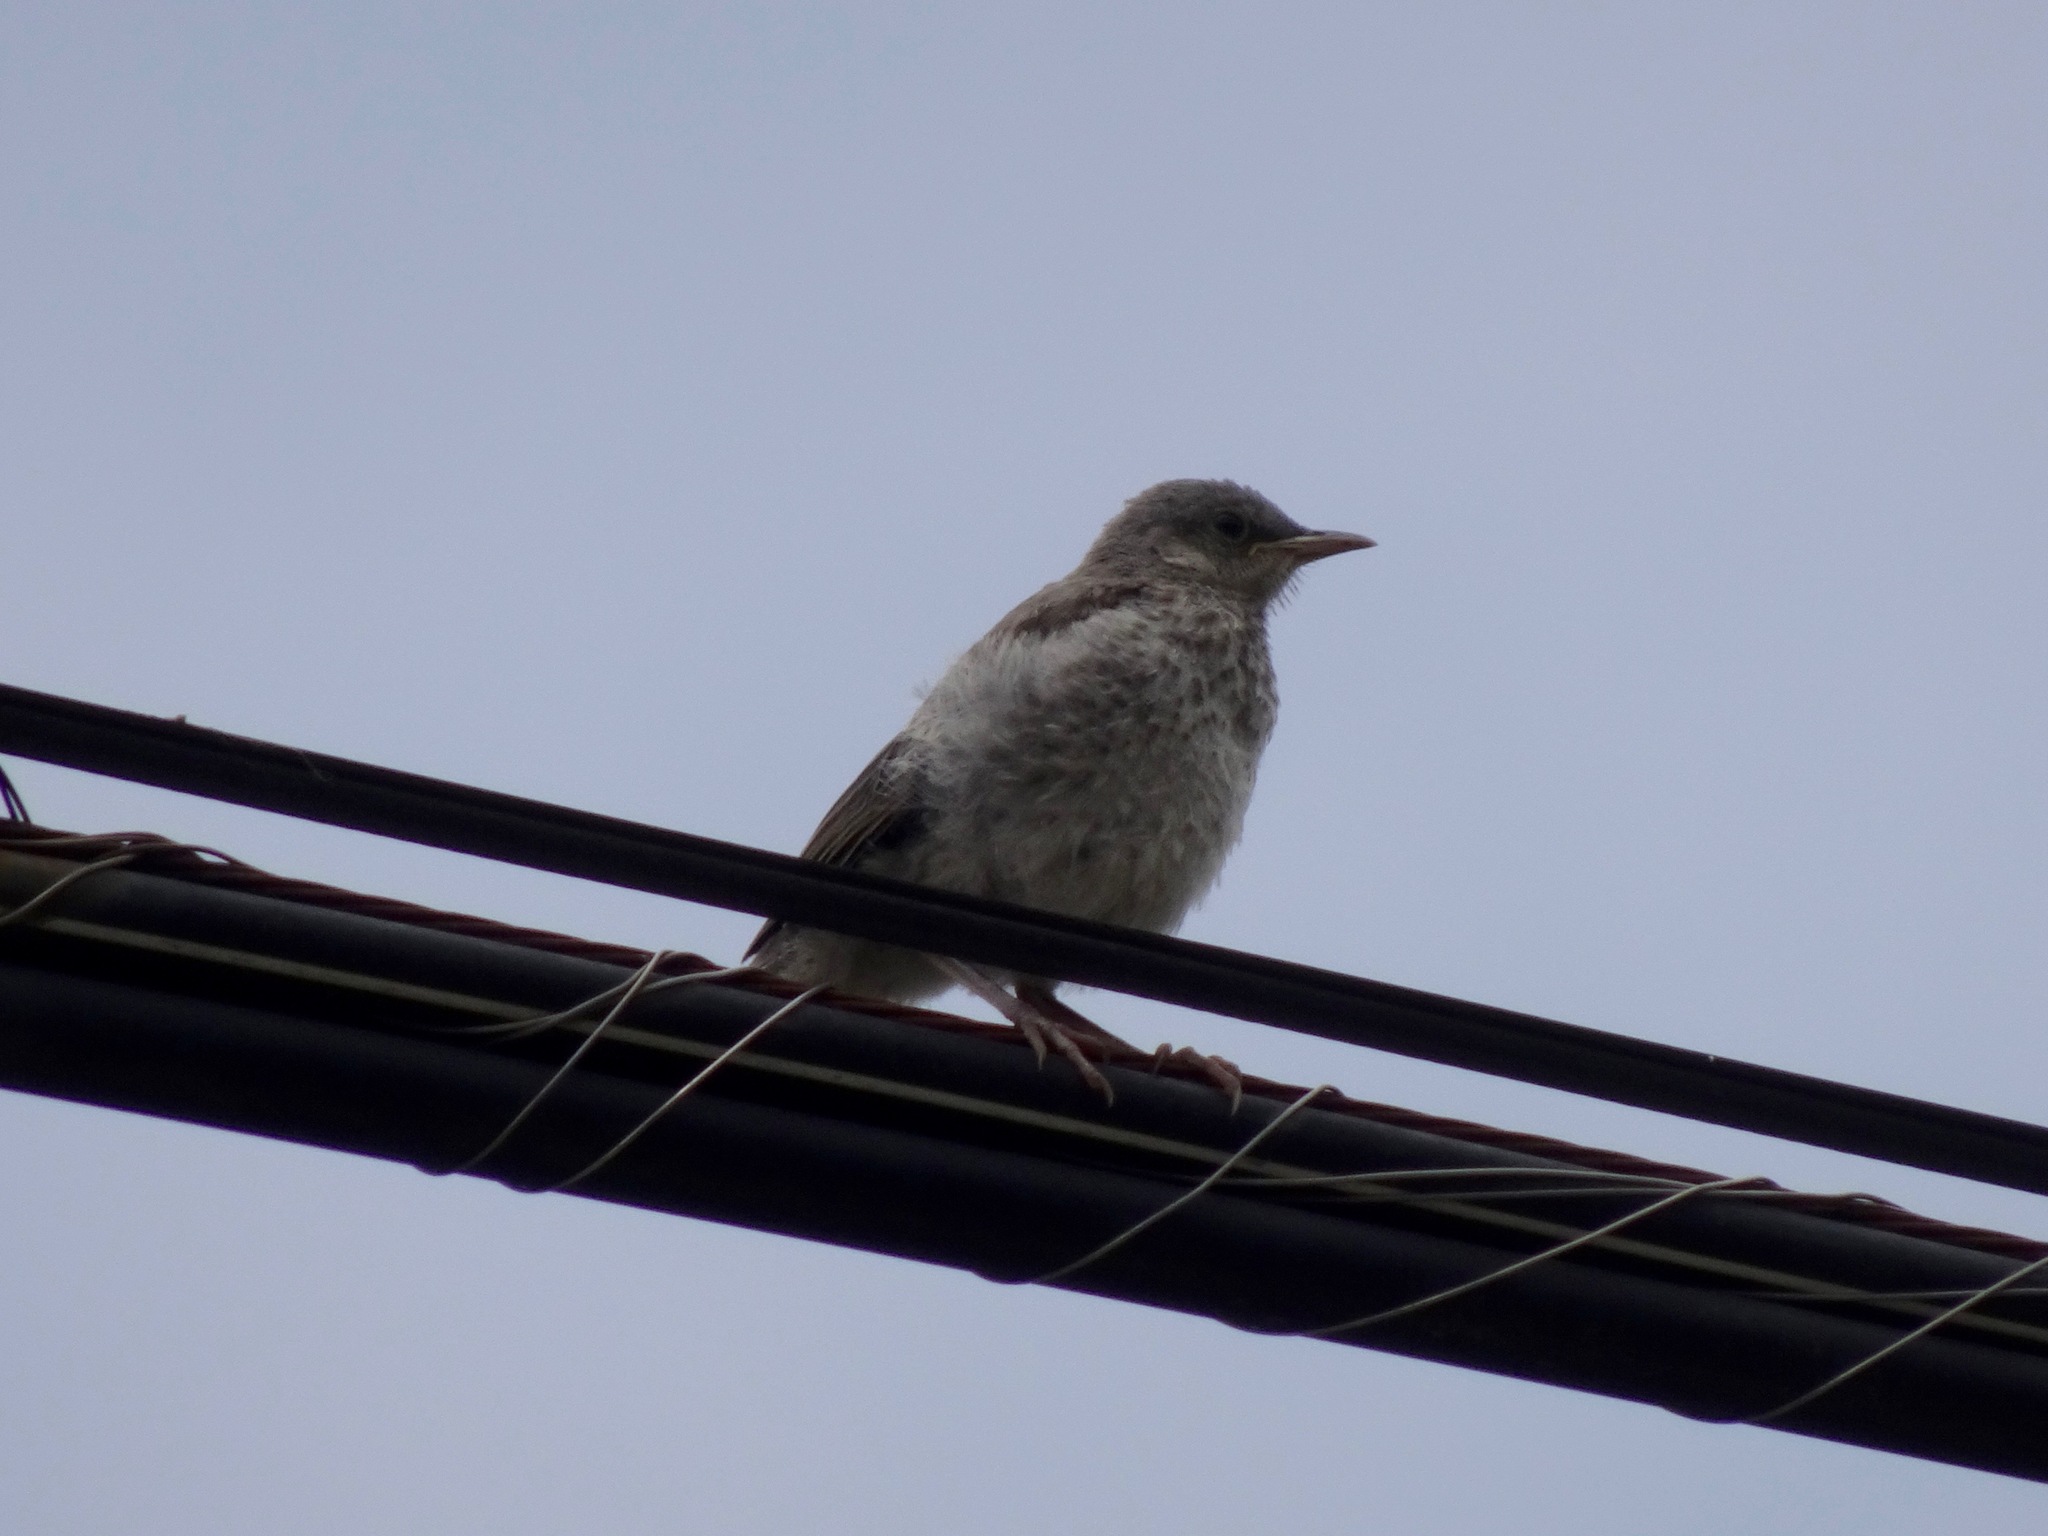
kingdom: Animalia
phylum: Chordata
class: Aves
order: Passeriformes
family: Mimidae
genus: Mimus
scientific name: Mimus polyglottos
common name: Northern mockingbird
